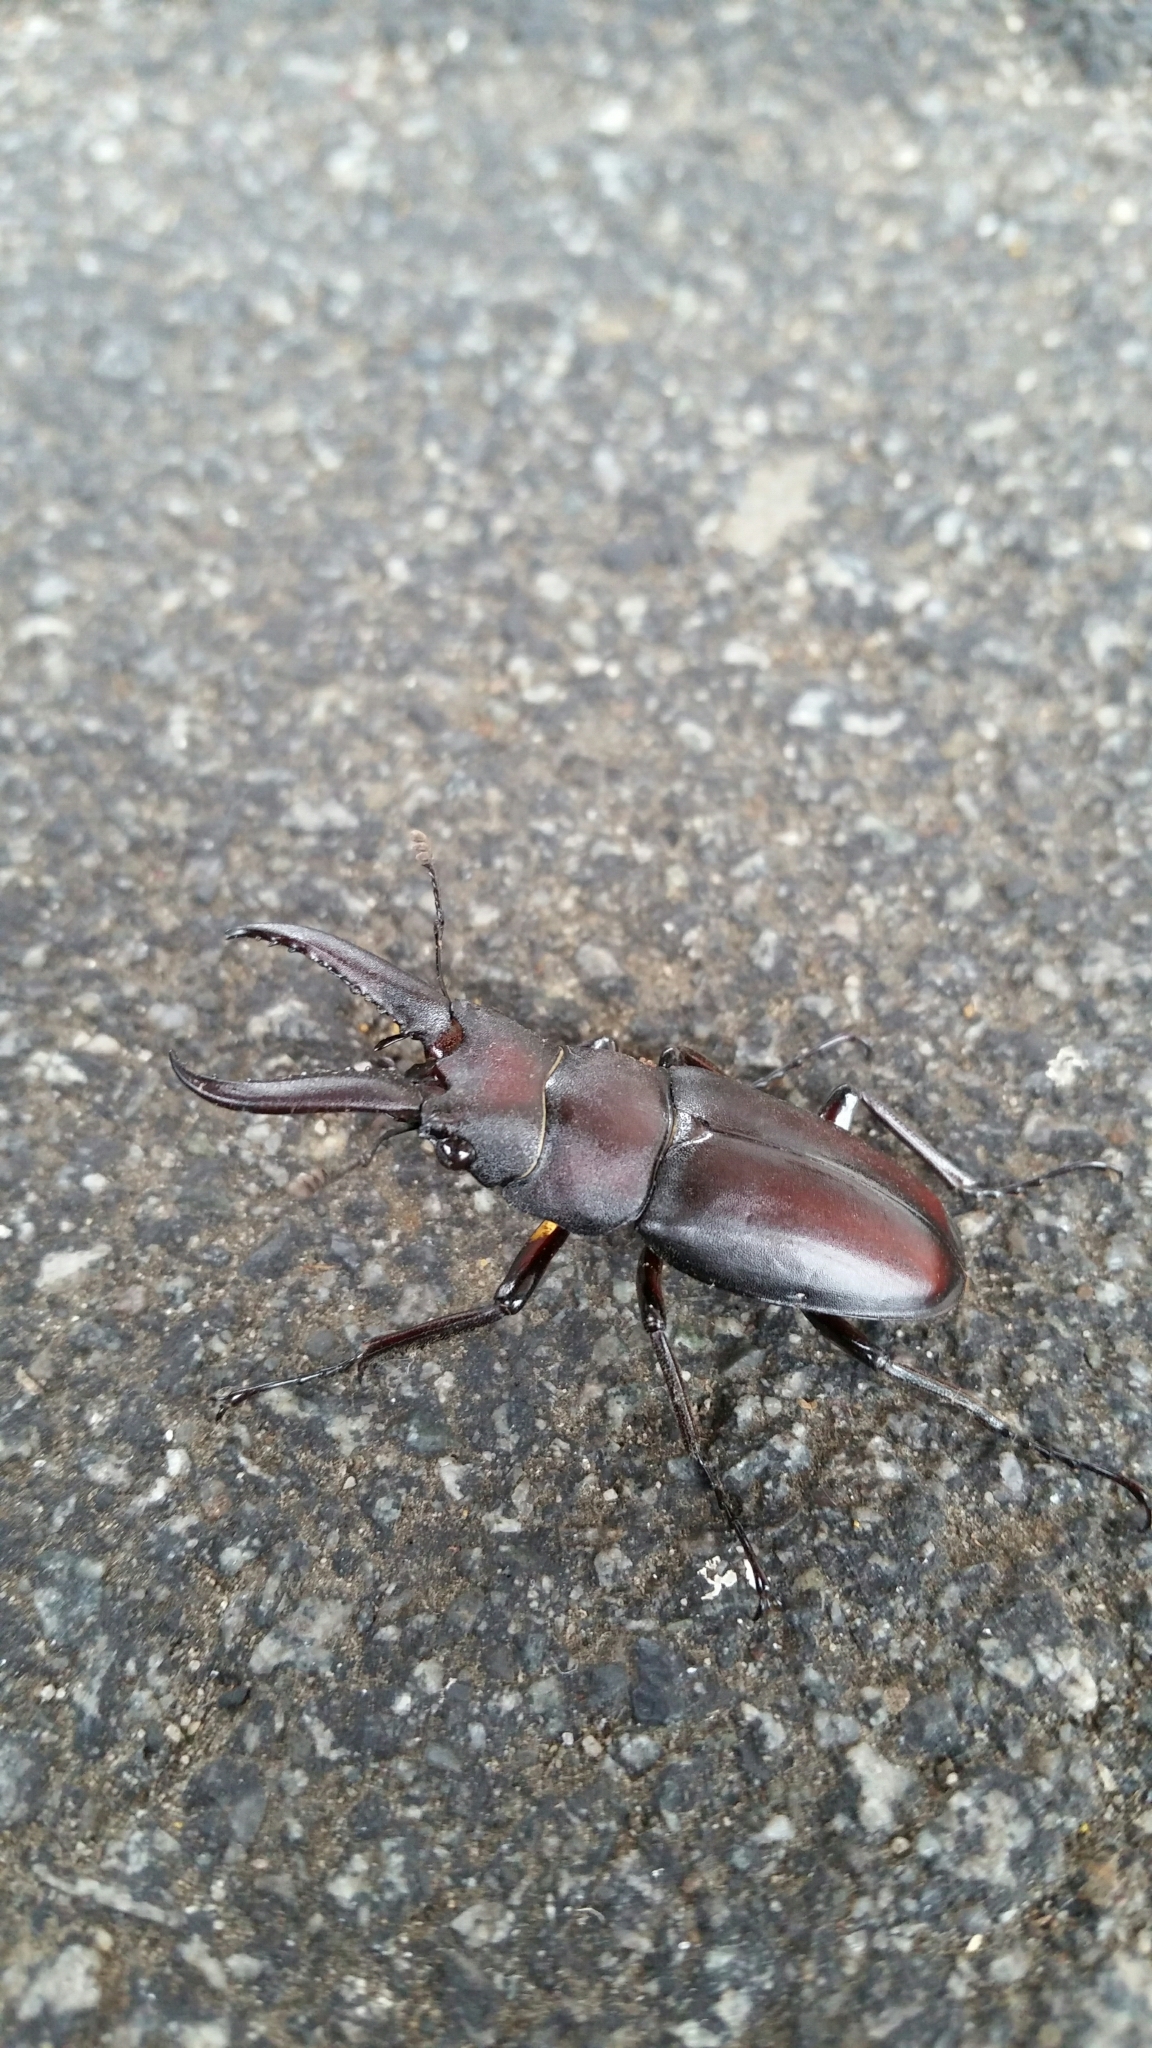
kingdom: Animalia
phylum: Arthropoda
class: Insecta
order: Coleoptera
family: Lucanidae
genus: Prosopocoilus
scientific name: Prosopocoilus inclinatus
